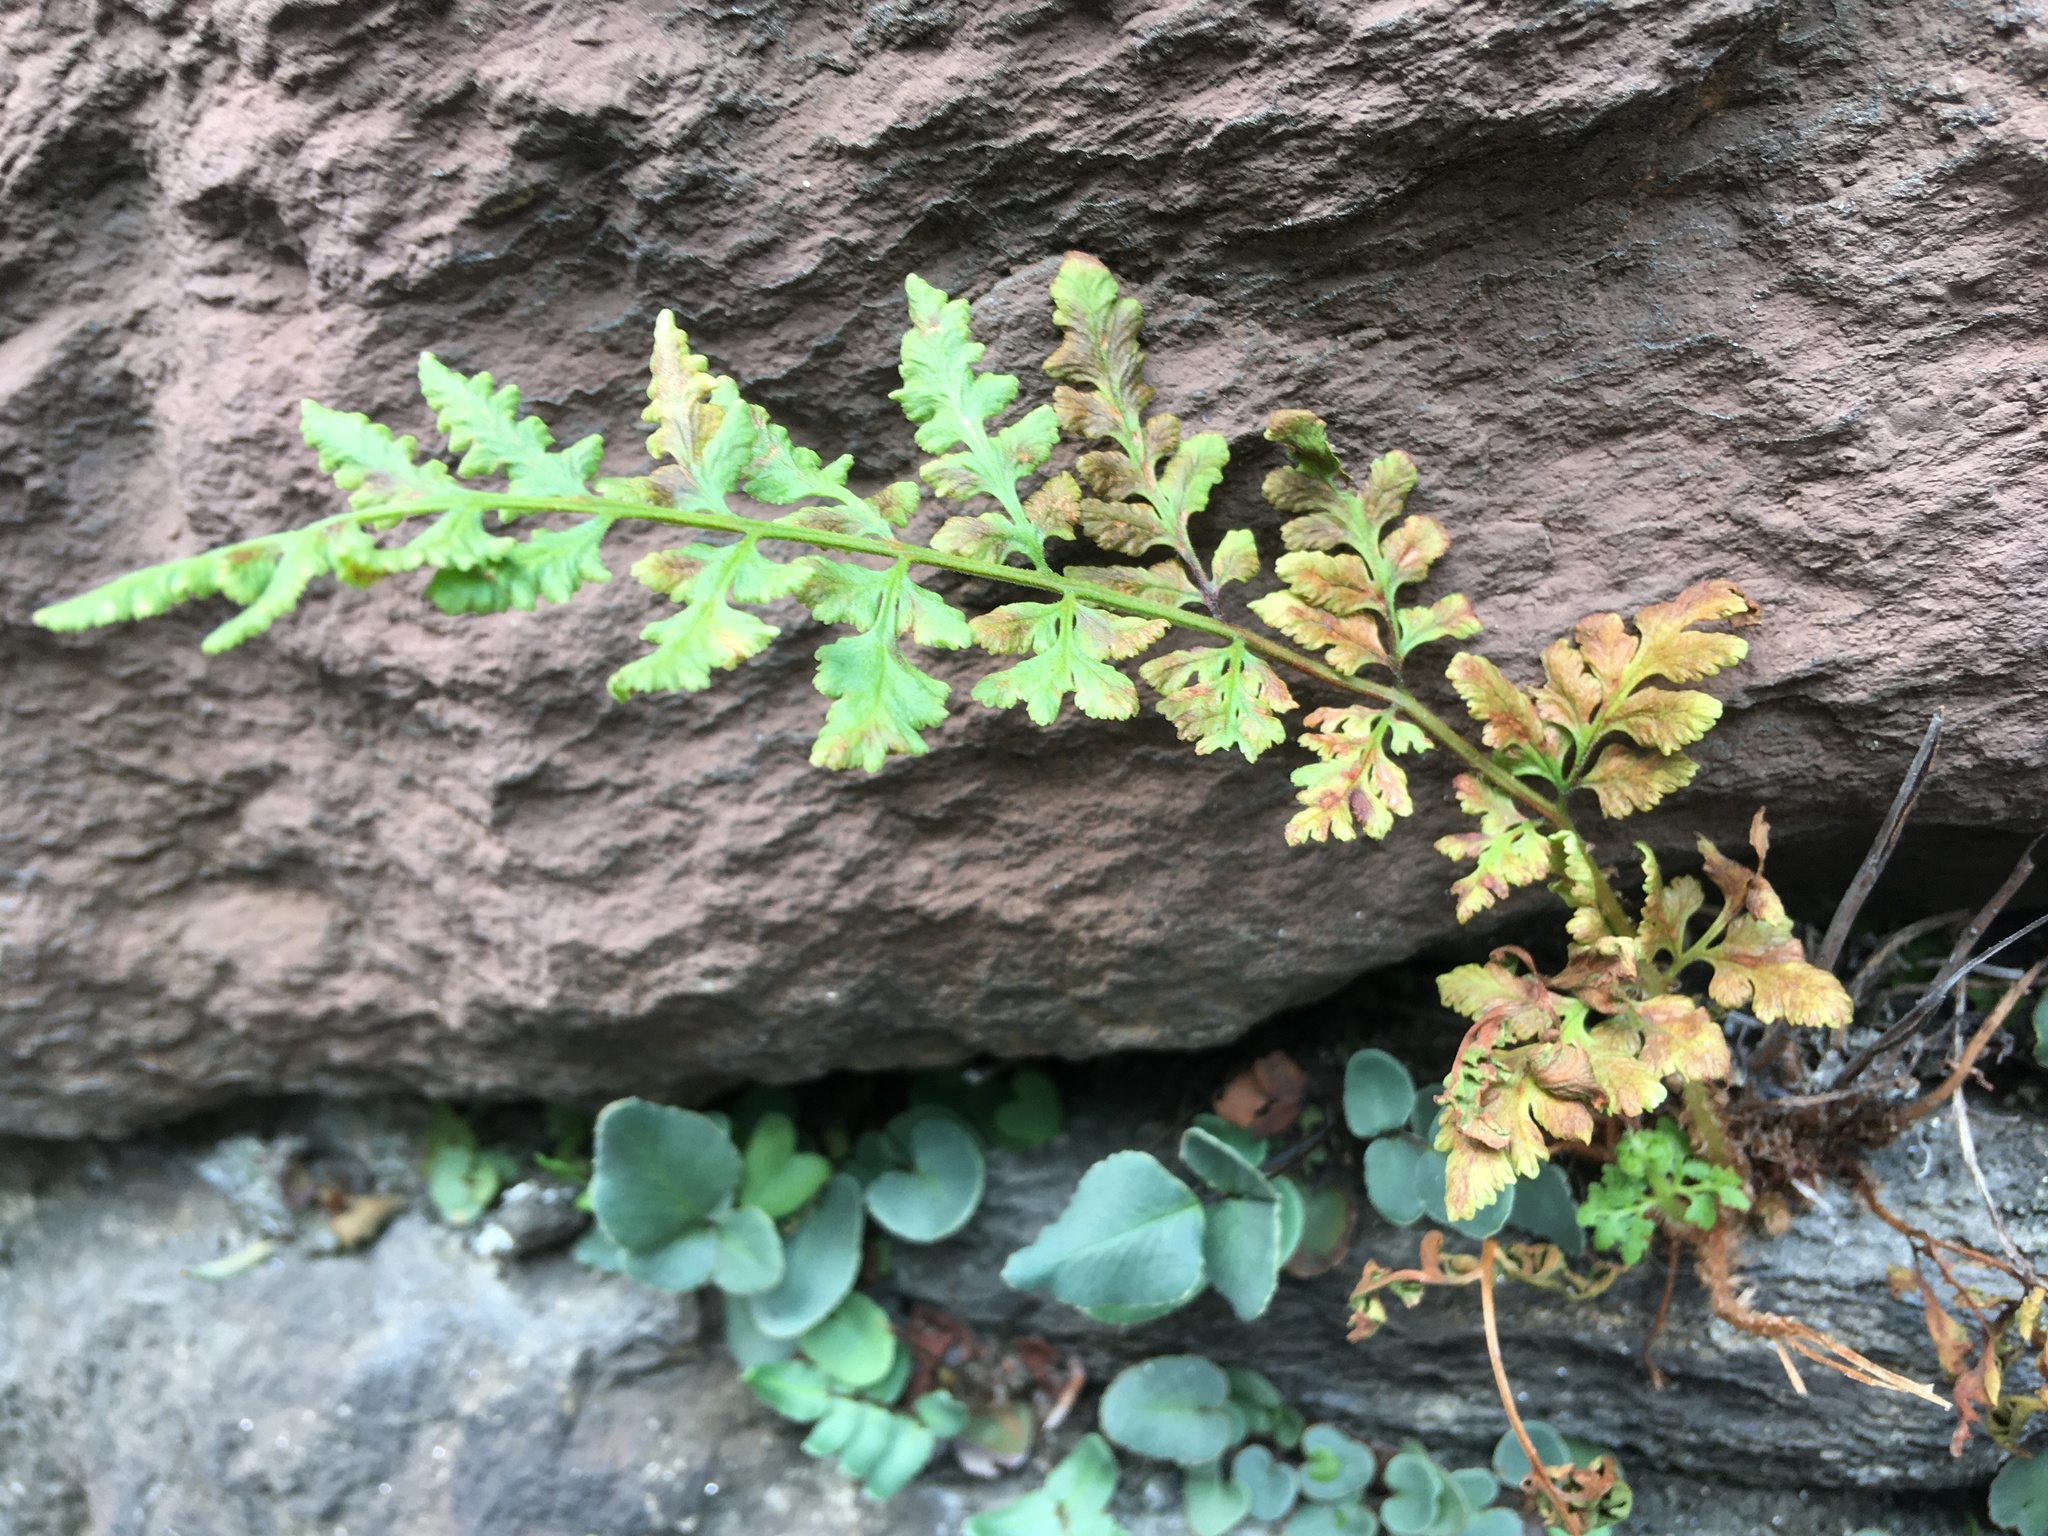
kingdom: Plantae
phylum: Tracheophyta
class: Polypodiopsida
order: Polypodiales
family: Woodsiaceae
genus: Physematium
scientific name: Physematium obtusum
